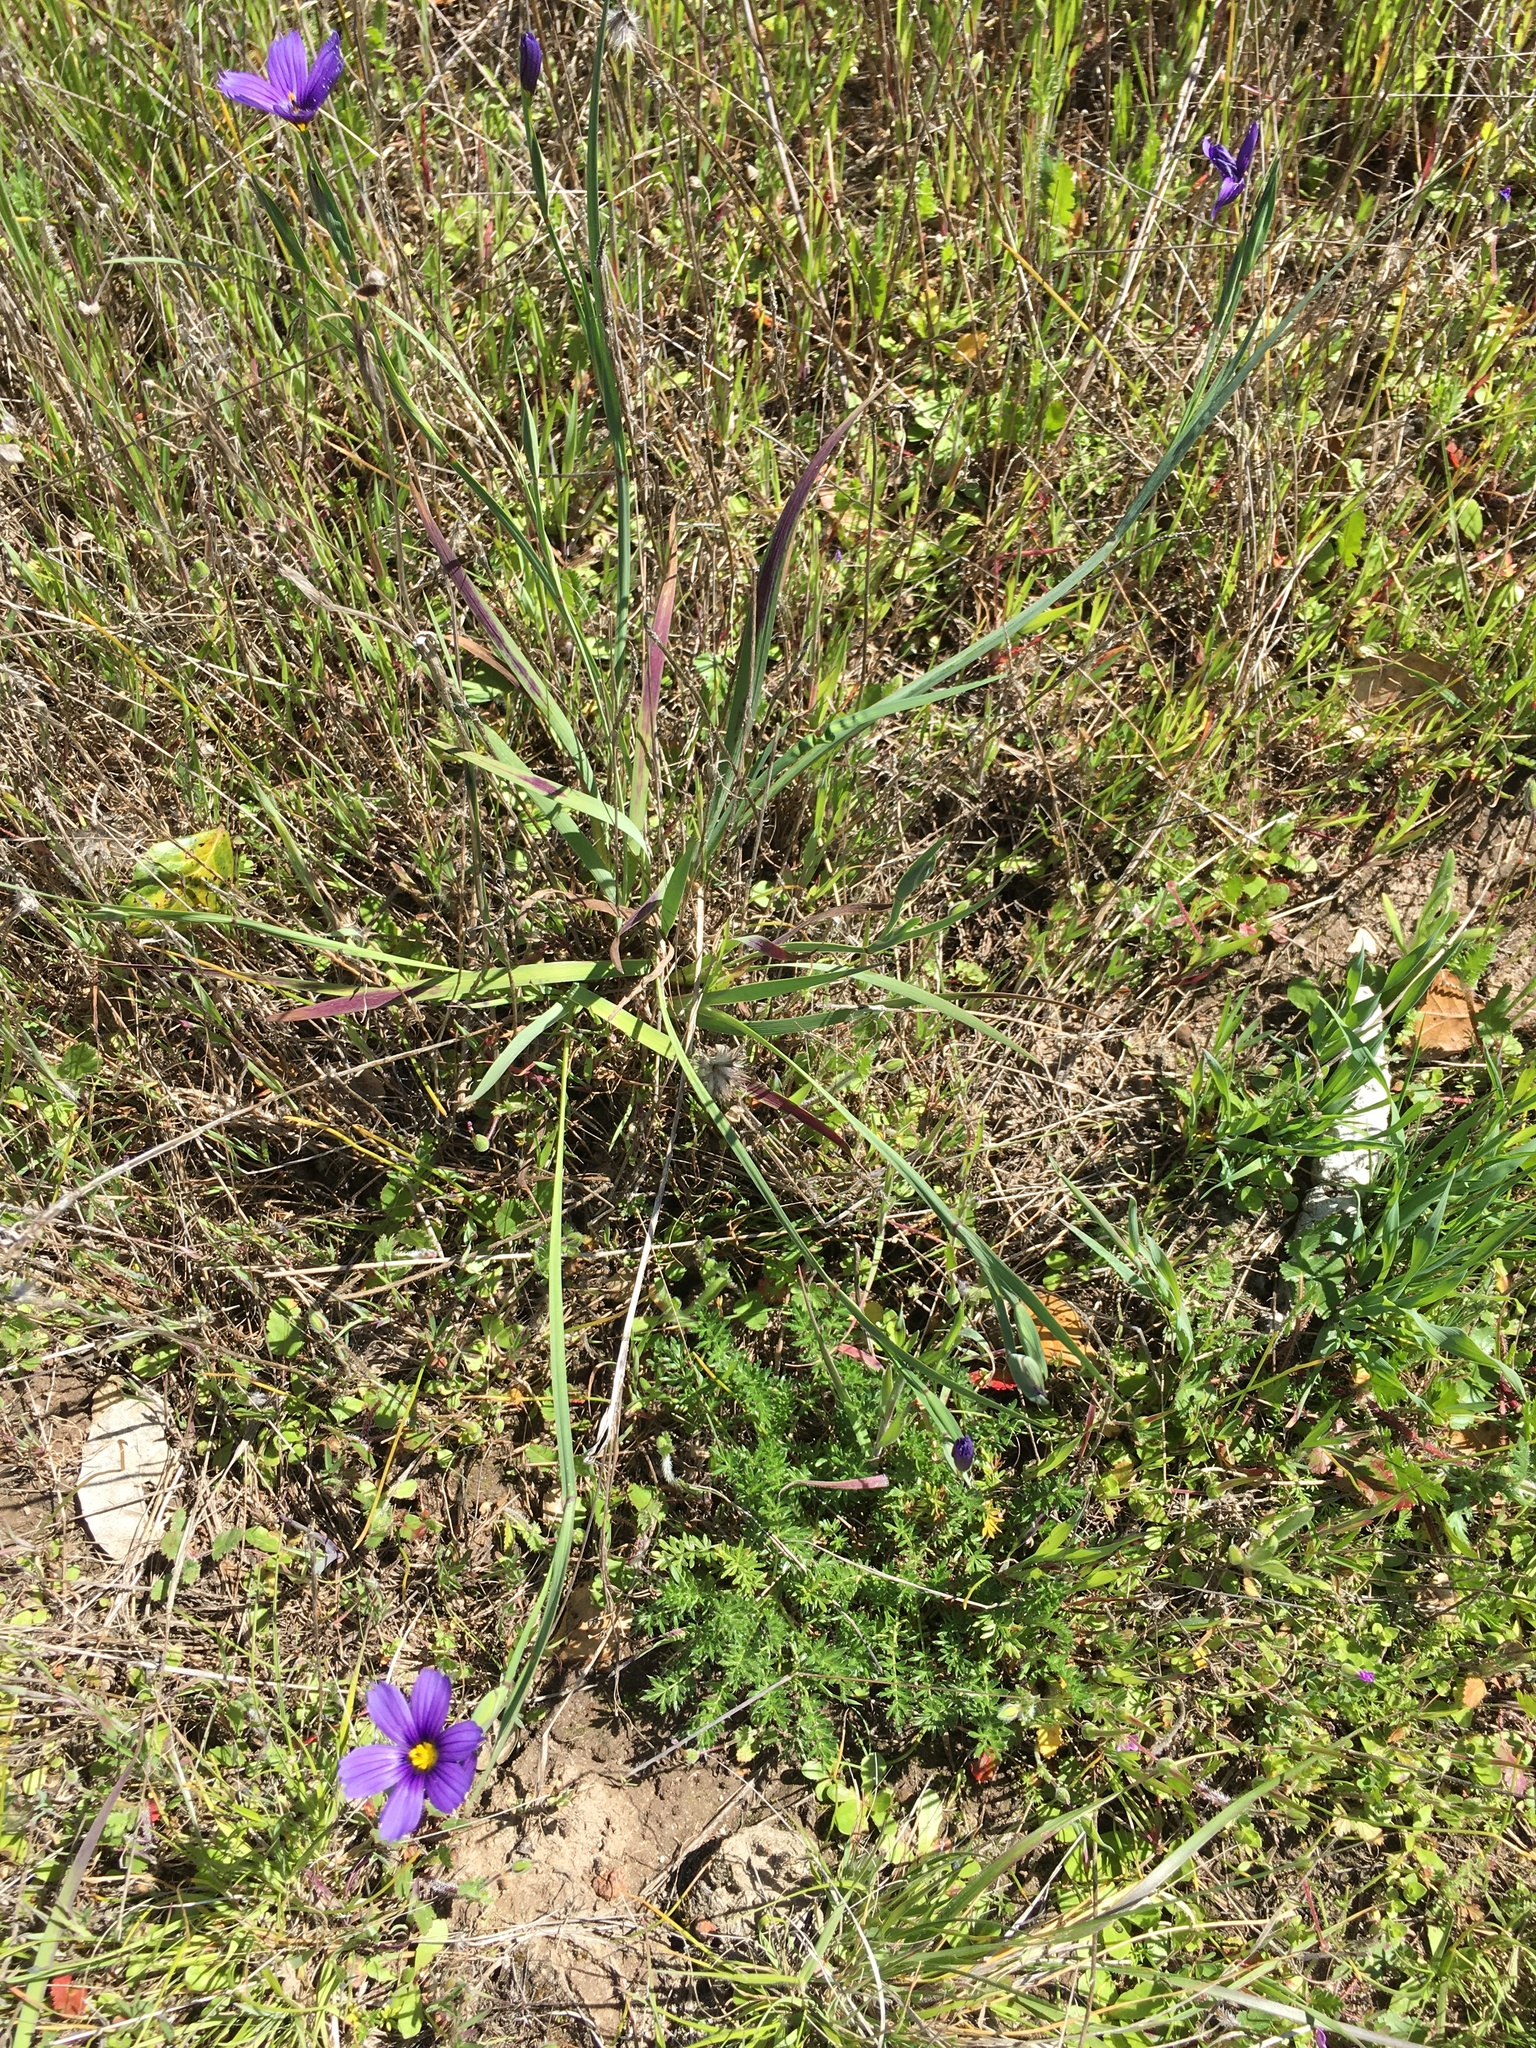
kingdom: Plantae
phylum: Tracheophyta
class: Liliopsida
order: Asparagales
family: Iridaceae
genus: Sisyrinchium
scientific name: Sisyrinchium bellum
